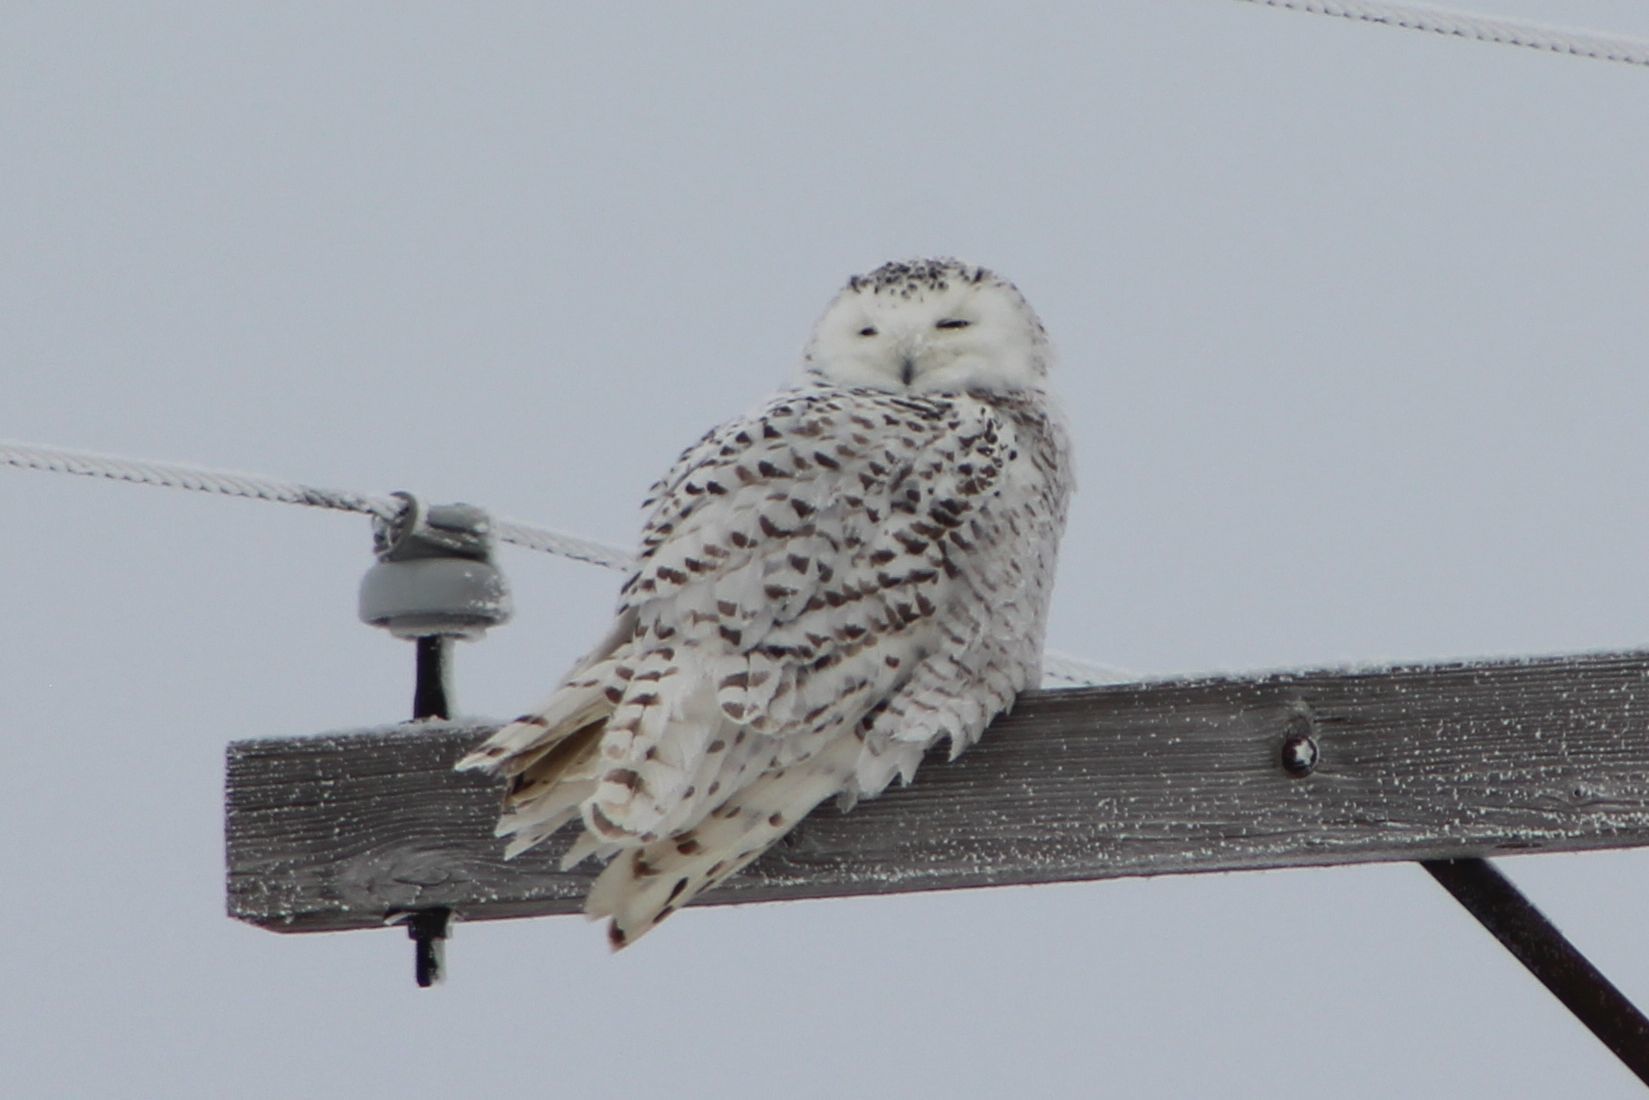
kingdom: Animalia
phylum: Chordata
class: Aves
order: Strigiformes
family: Strigidae
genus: Bubo
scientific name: Bubo scandiacus
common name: Snowy owl
